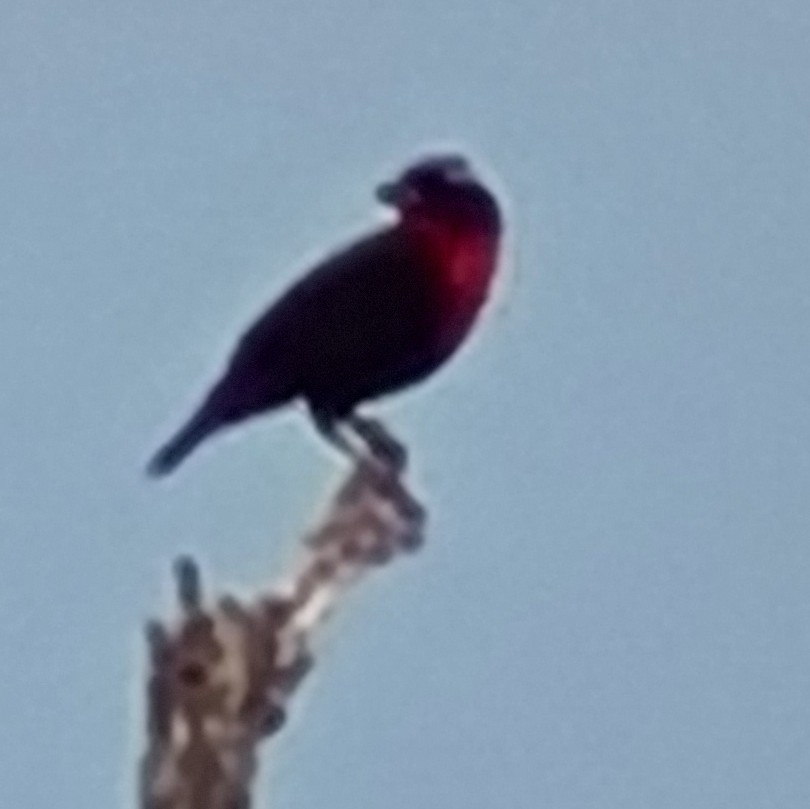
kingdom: Animalia
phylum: Chordata
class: Aves
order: Passeriformes
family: Icteridae
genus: Sturnella
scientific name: Sturnella superciliaris
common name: White-browed blackbird
